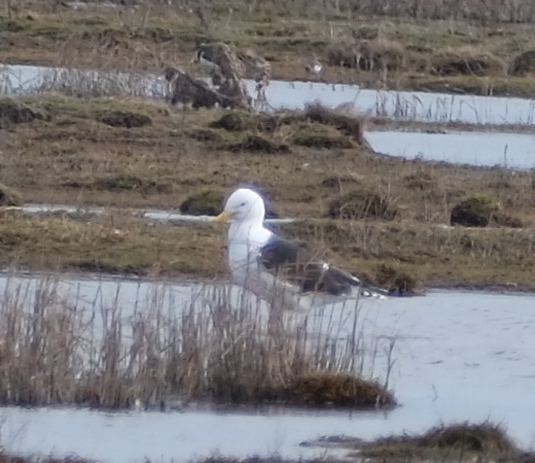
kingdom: Animalia
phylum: Chordata
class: Aves
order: Charadriiformes
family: Laridae
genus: Larus
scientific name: Larus marinus
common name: Great black-backed gull
